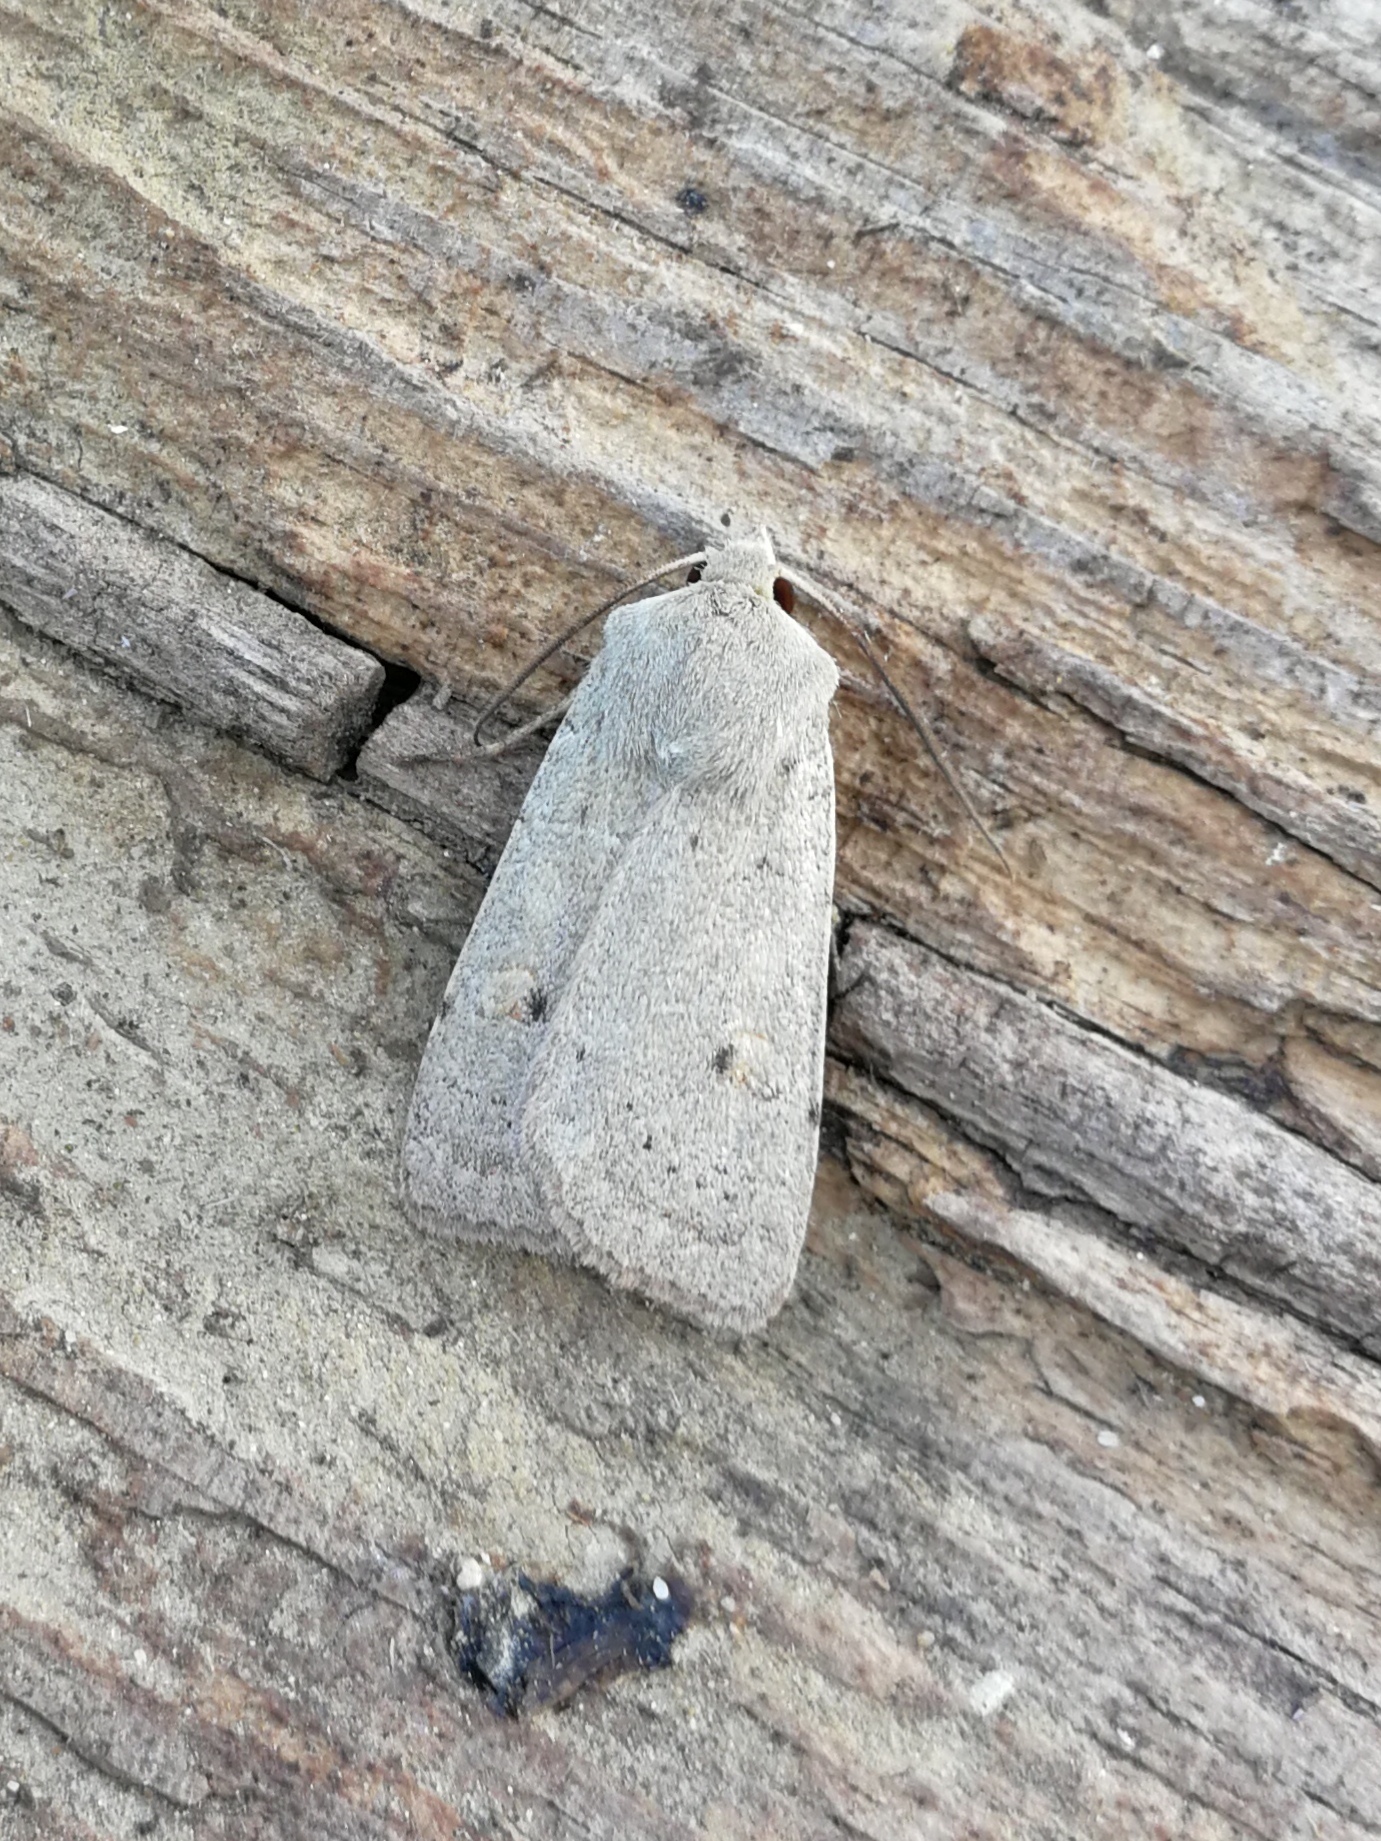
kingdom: Animalia
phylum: Arthropoda
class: Insecta
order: Lepidoptera
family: Noctuidae
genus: Xestia
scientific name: Xestia castanea
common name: Neglected rustic
